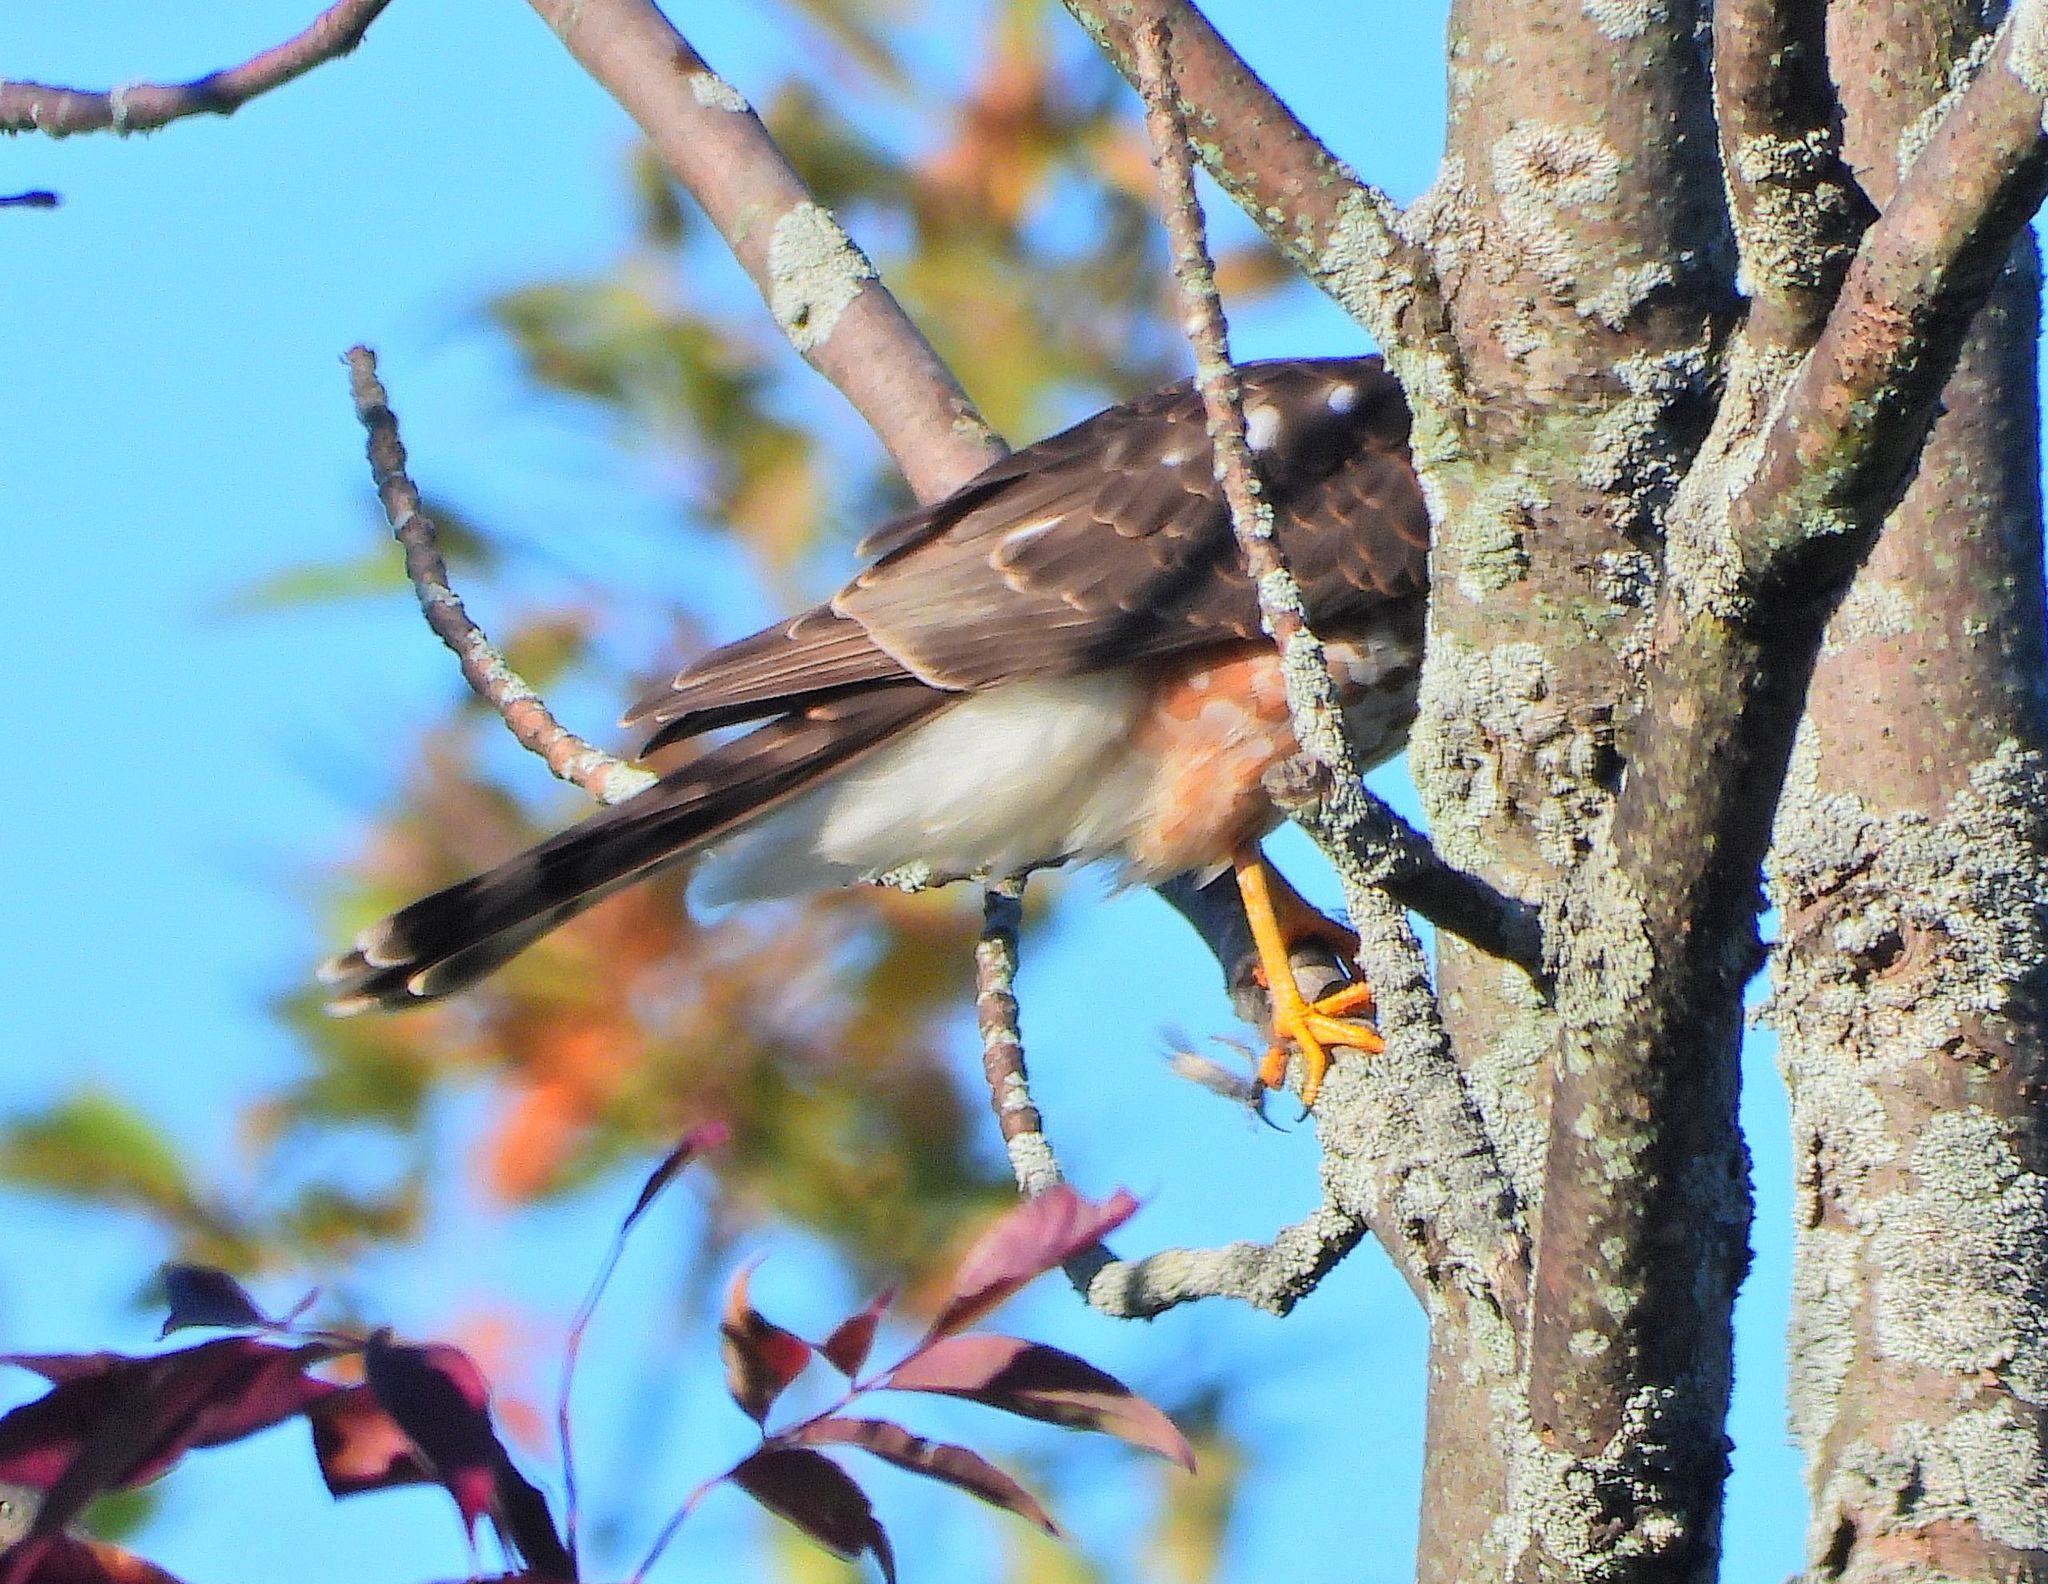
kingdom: Animalia
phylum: Chordata
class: Aves
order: Accipitriformes
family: Accipitridae
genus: Accipiter
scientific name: Accipiter striatus
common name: Sharp-shinned hawk
